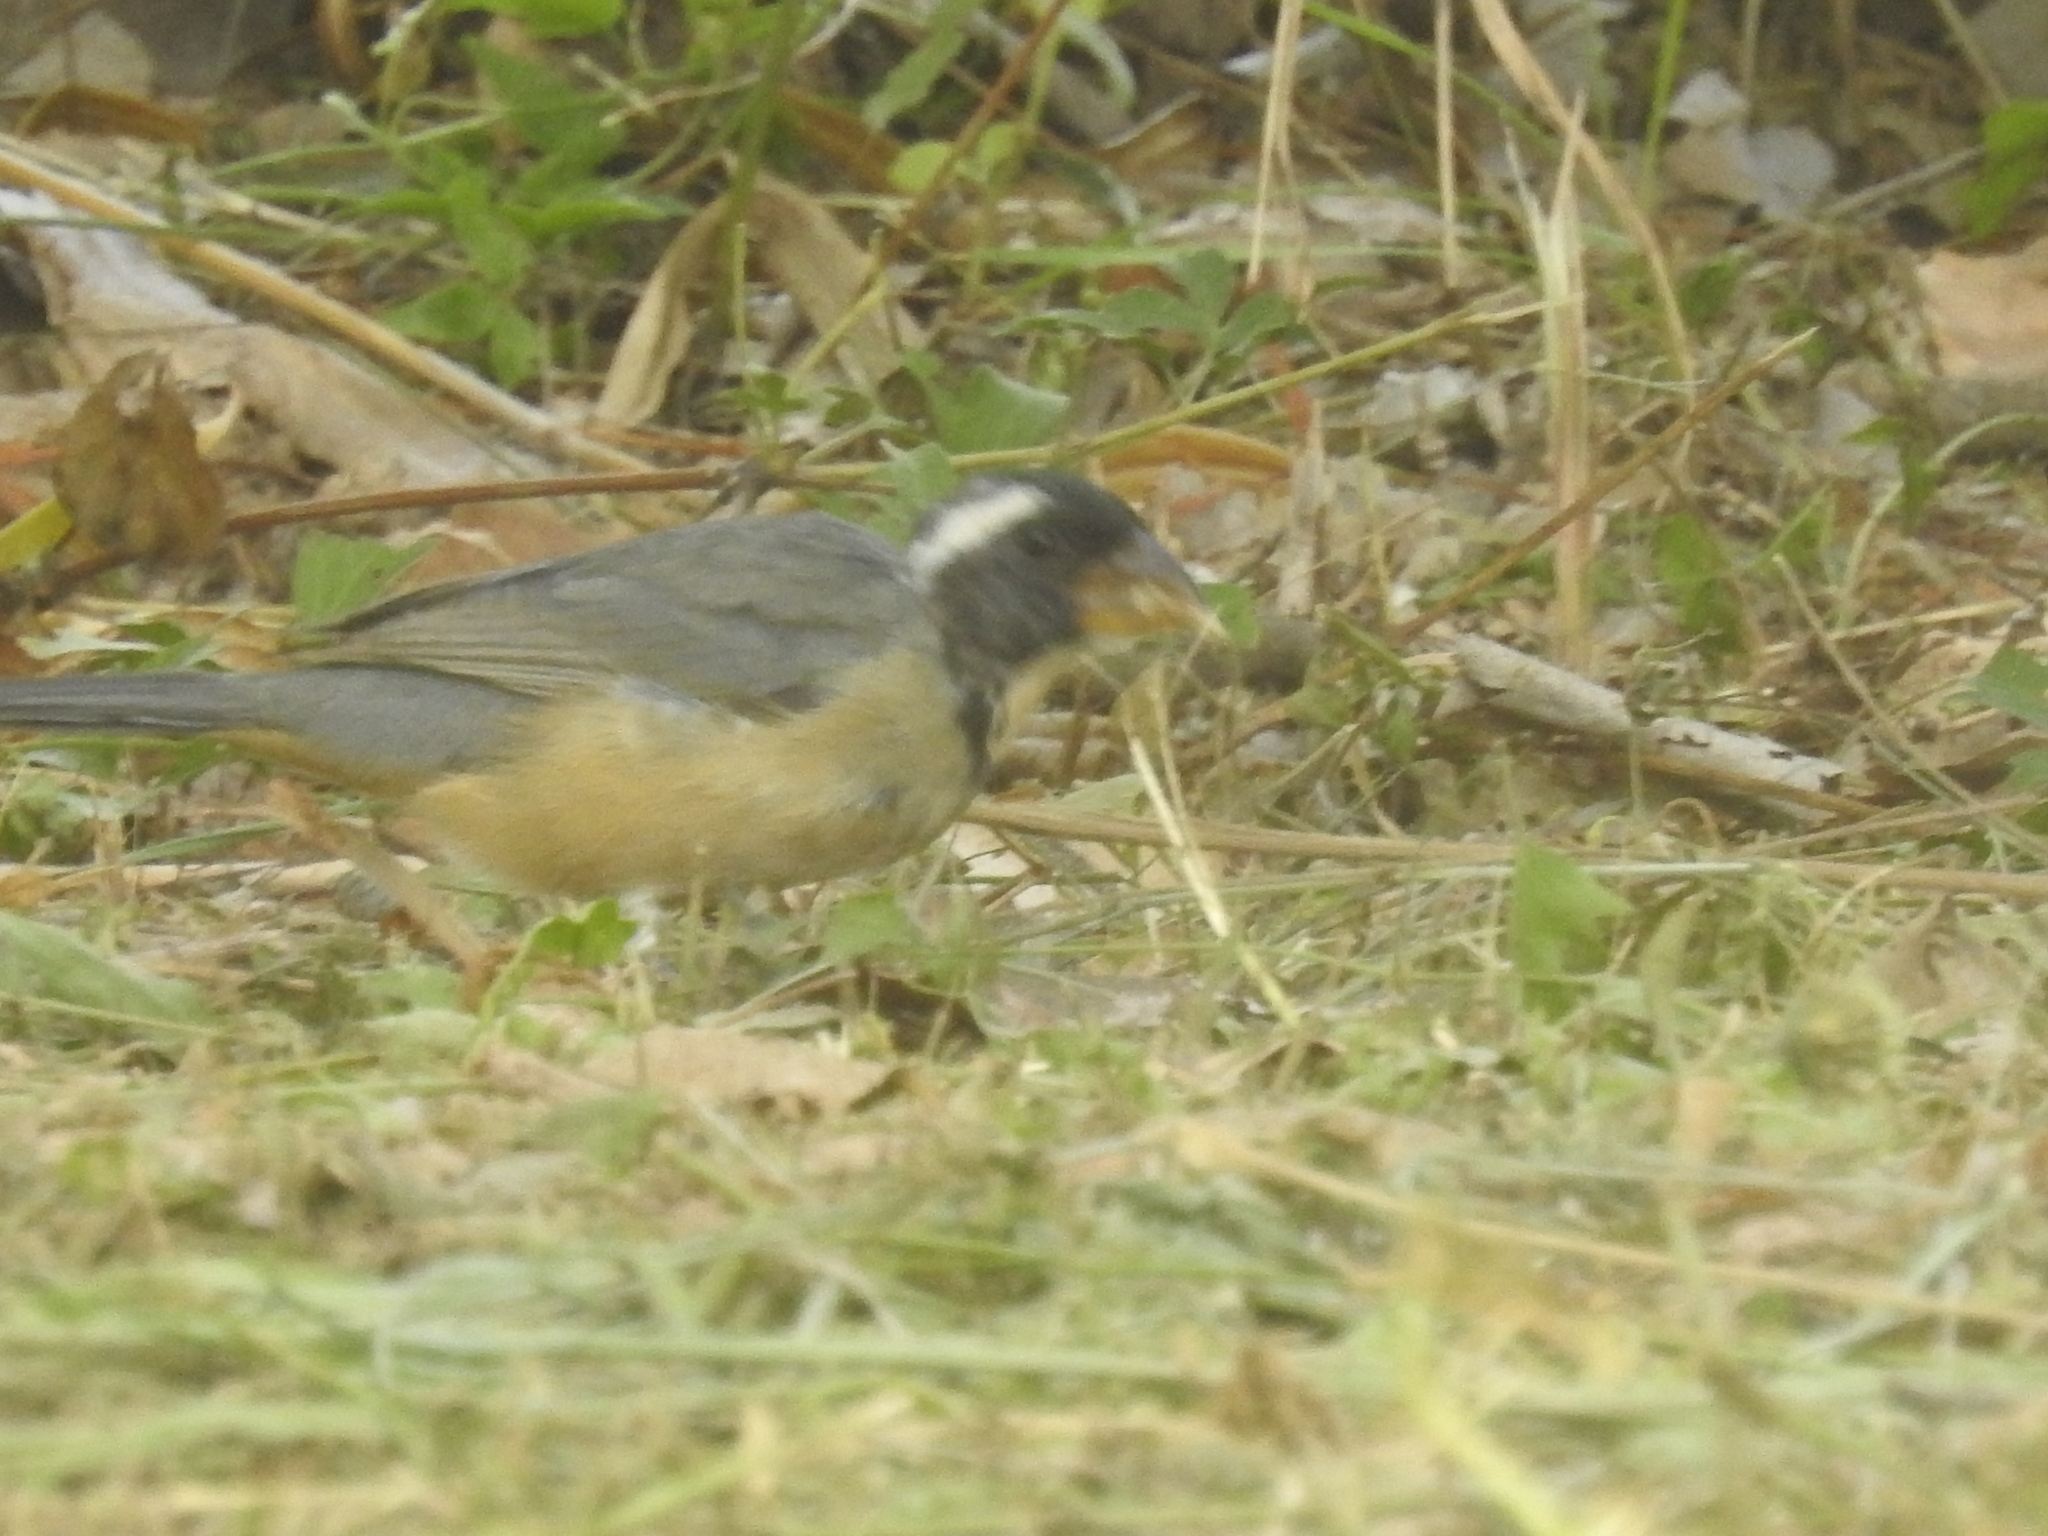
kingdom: Animalia
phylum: Chordata
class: Aves
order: Passeriformes
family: Thraupidae
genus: Saltator
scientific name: Saltator aurantiirostris
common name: Golden-billed saltator
